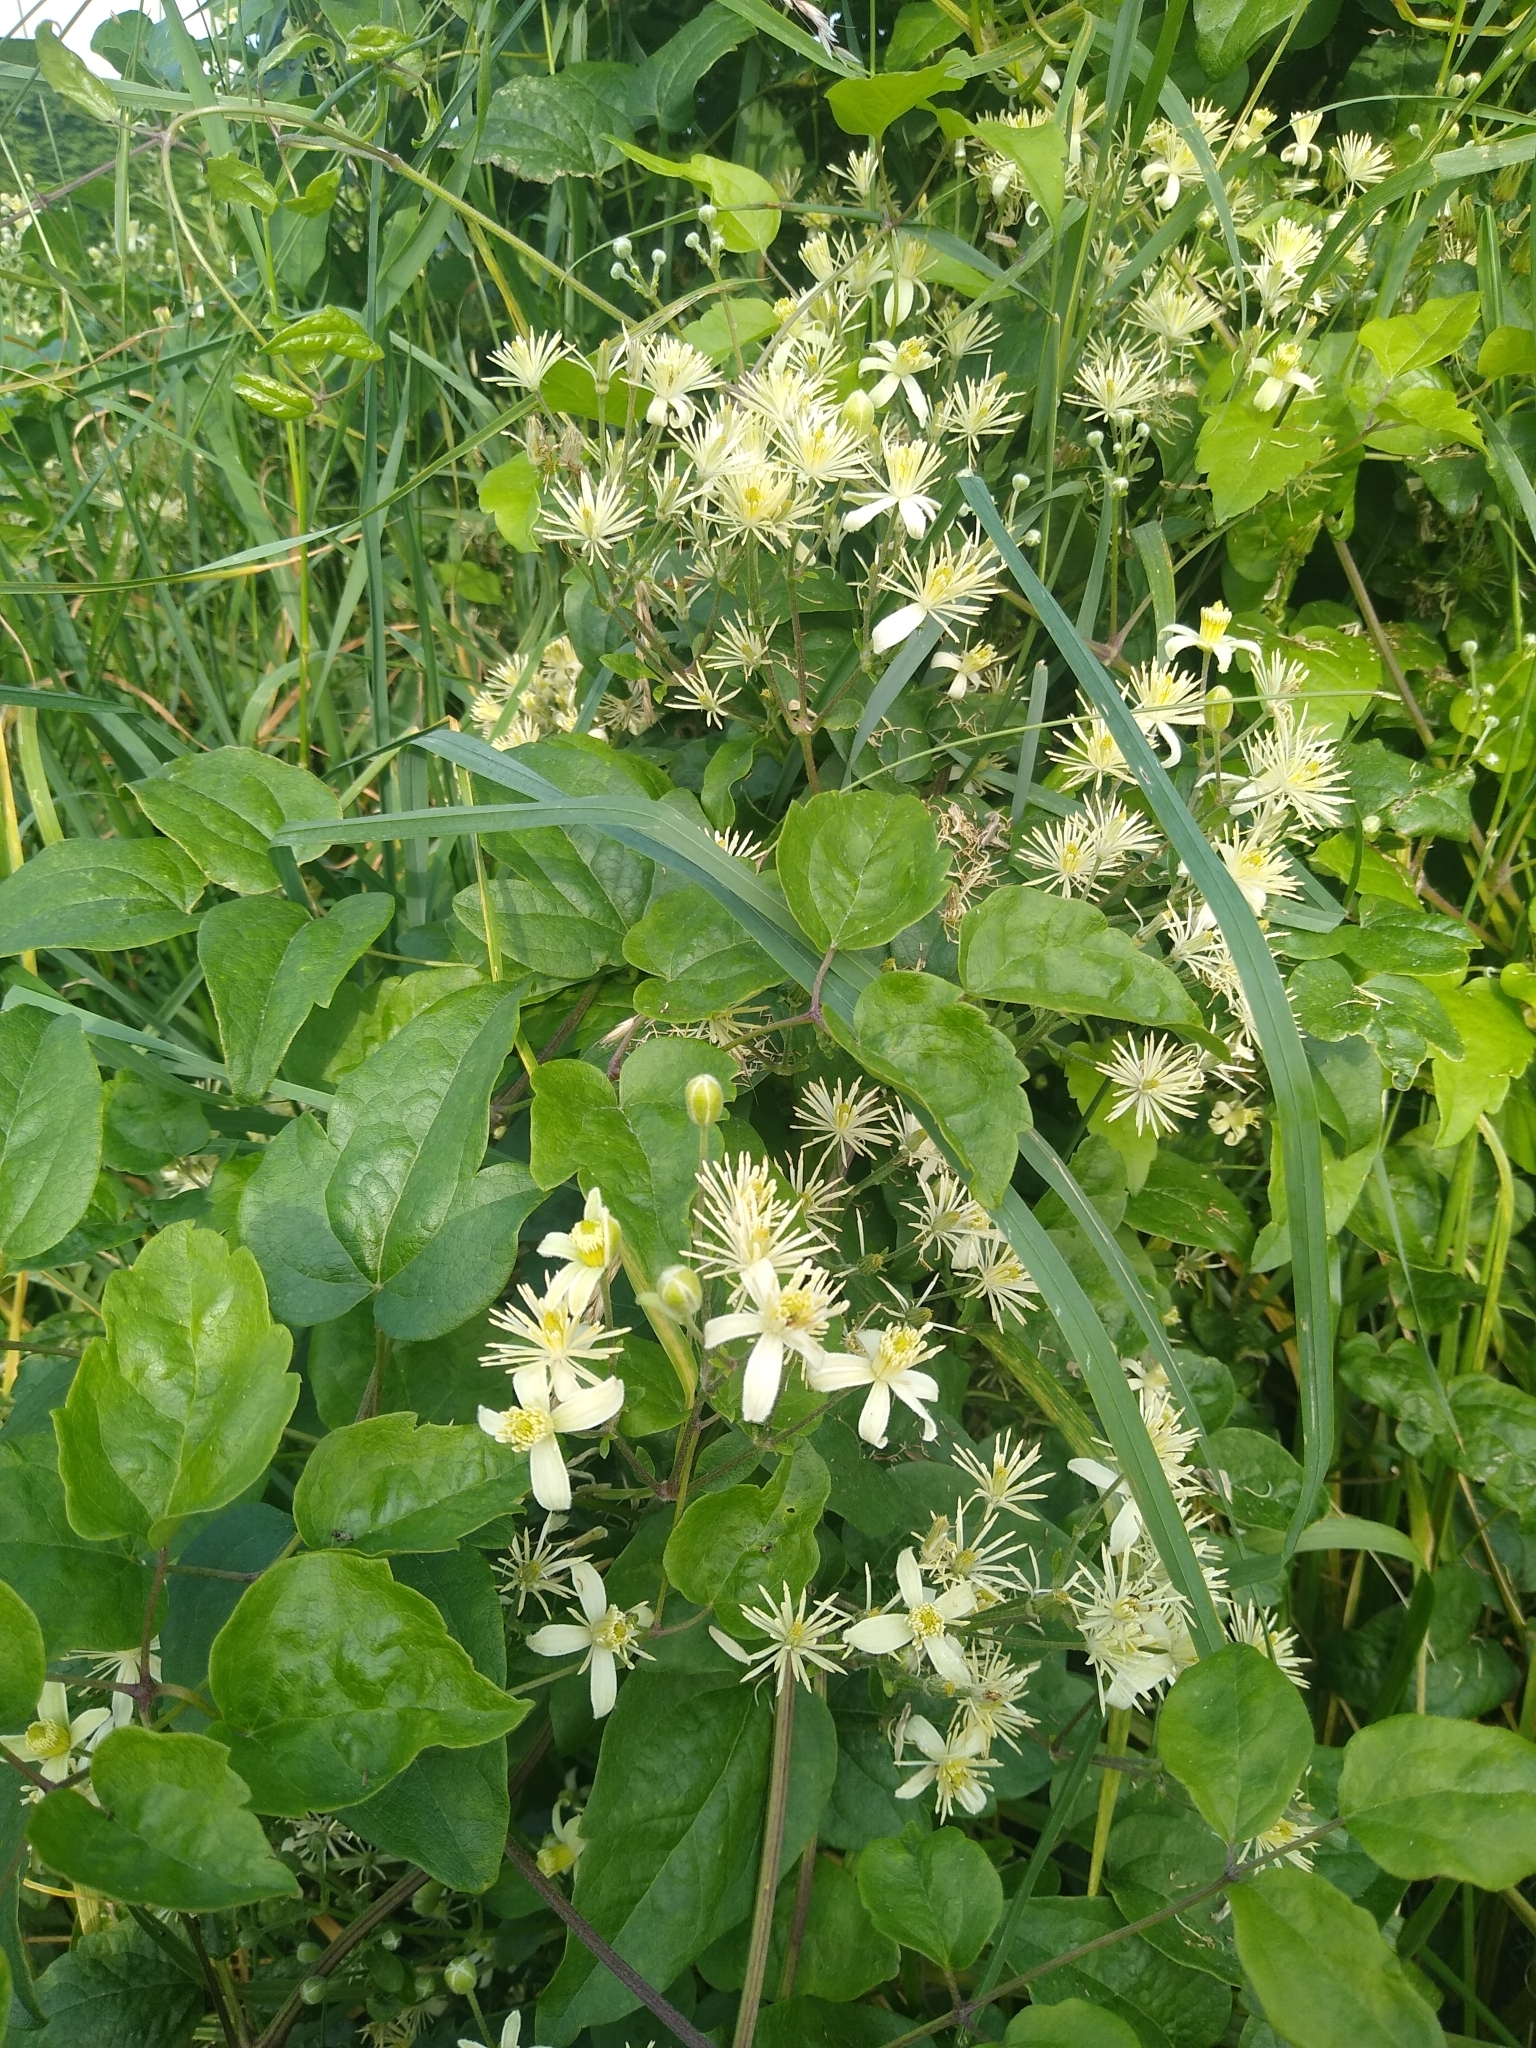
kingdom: Plantae
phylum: Tracheophyta
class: Magnoliopsida
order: Ranunculales
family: Ranunculaceae
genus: Clematis
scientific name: Clematis vitalba
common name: Evergreen clematis
